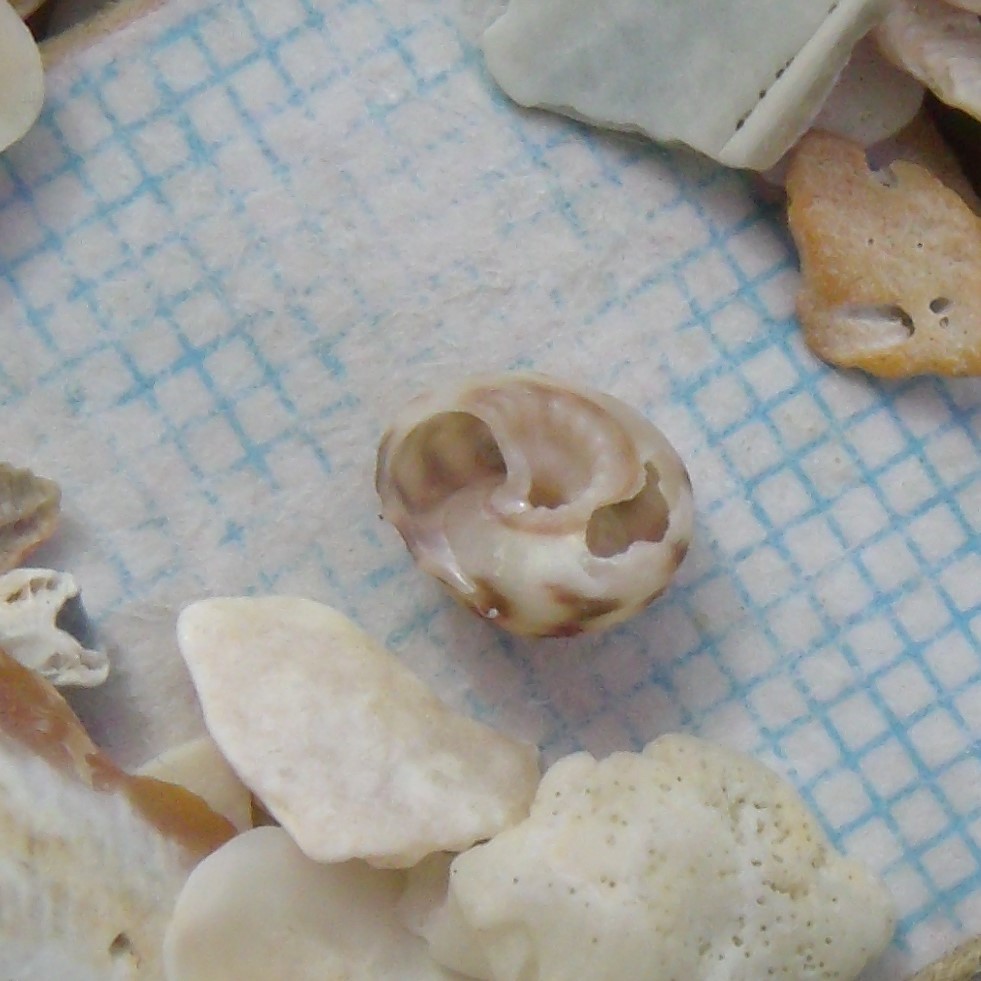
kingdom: Animalia
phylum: Mollusca
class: Gastropoda
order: Trochida
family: Trochidae
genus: Antisolarium
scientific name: Antisolarium egenum
